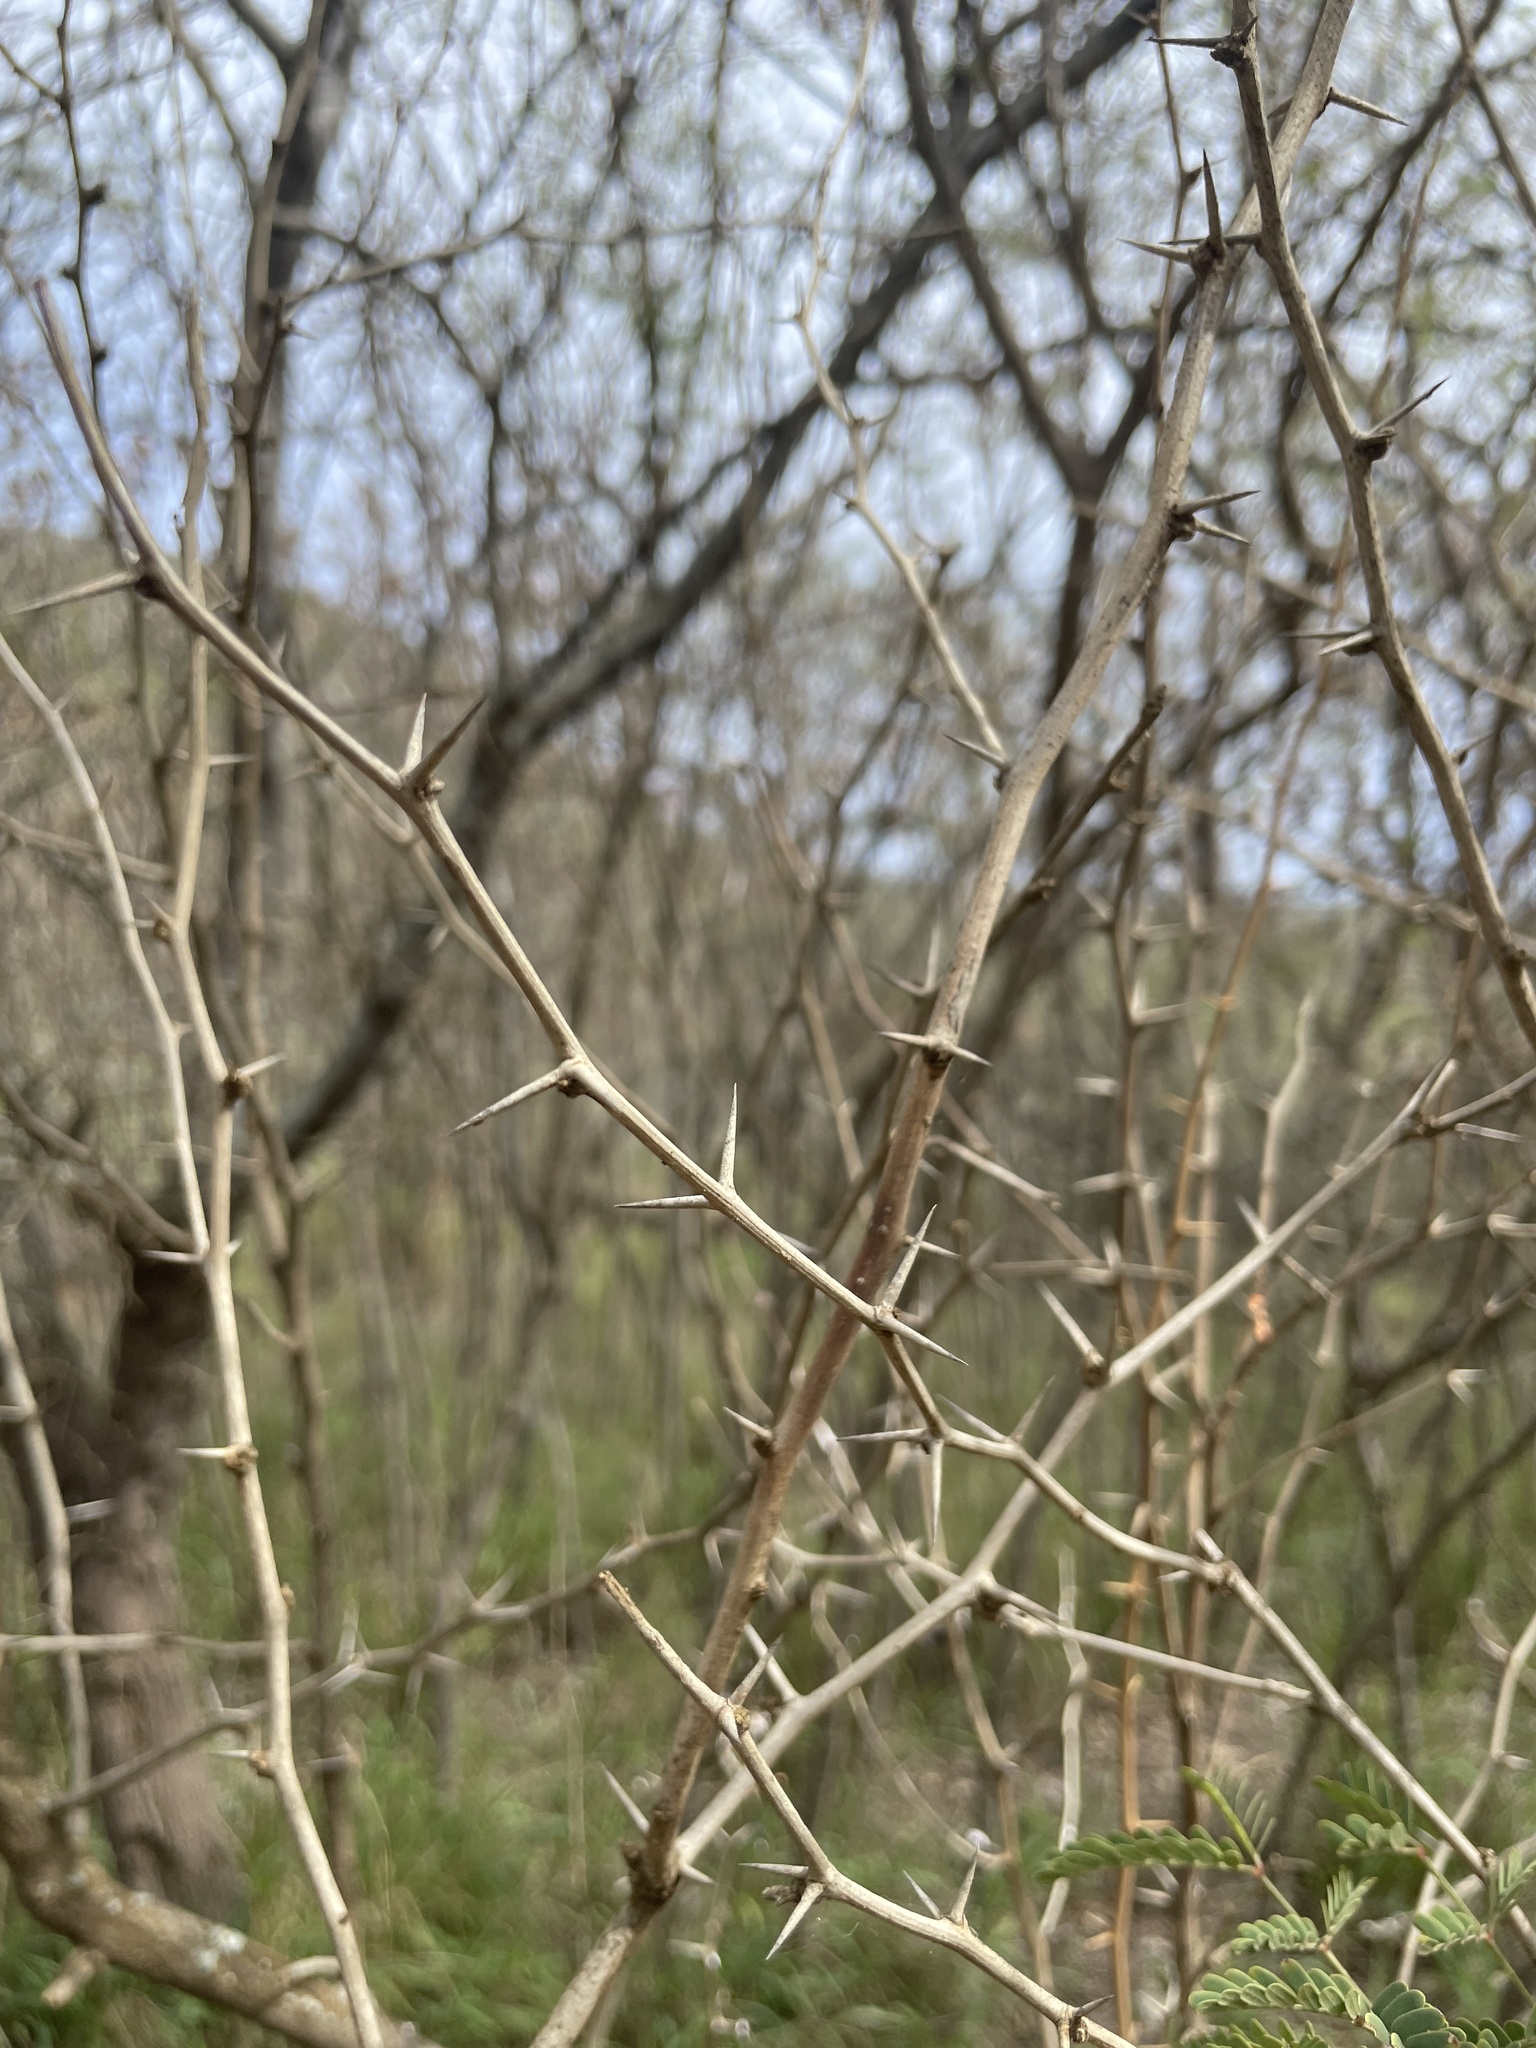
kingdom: Plantae
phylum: Tracheophyta
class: Magnoliopsida
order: Fabales
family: Fabaceae
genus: Prosopis
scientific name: Prosopis pallida
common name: Mesquite
